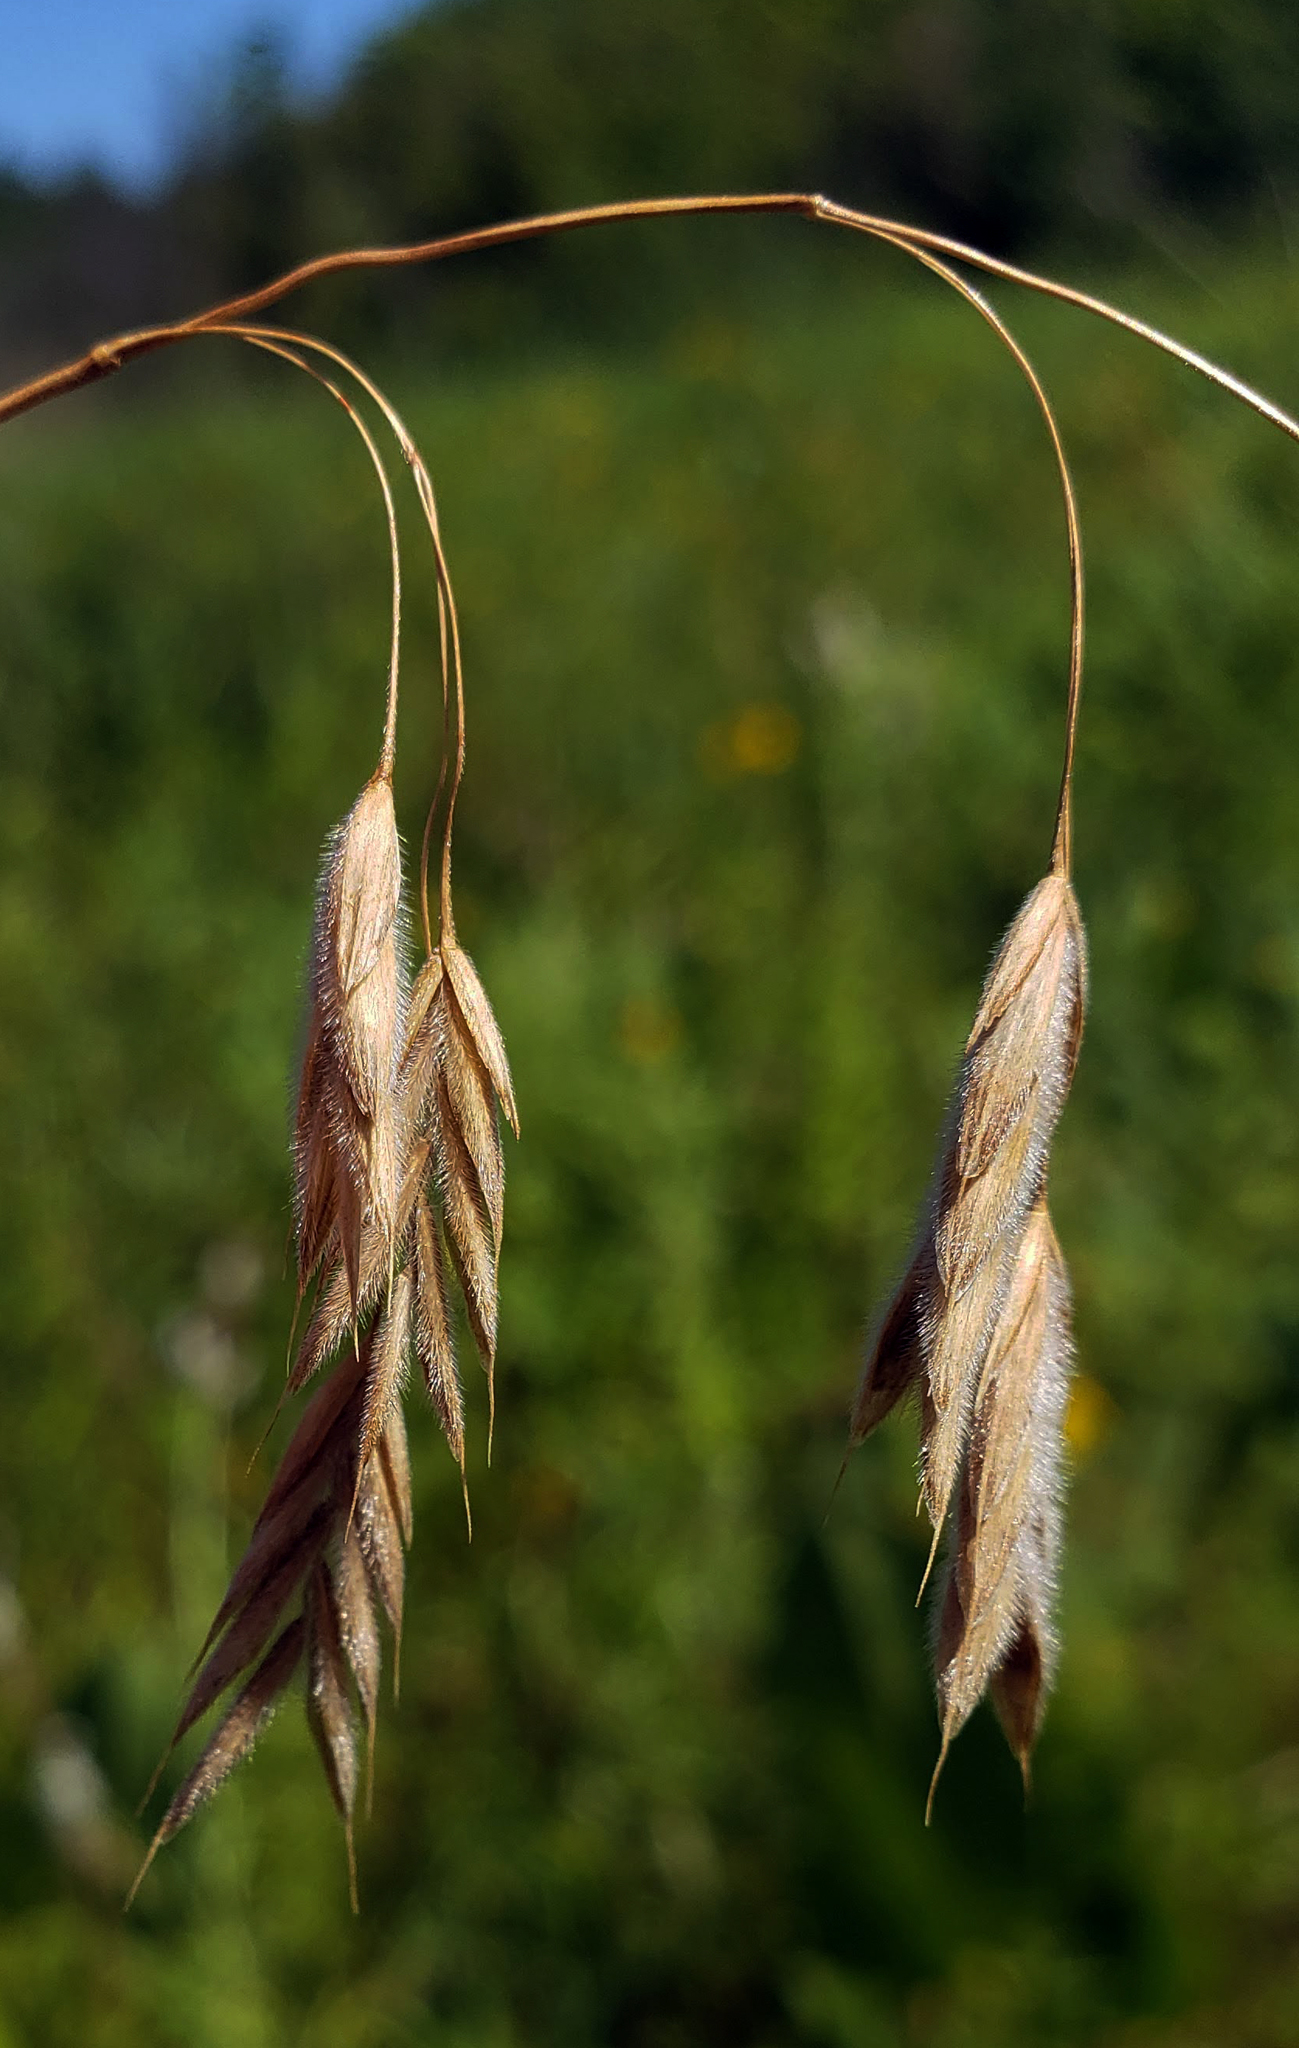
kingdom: Plantae
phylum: Tracheophyta
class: Liliopsida
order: Poales
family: Poaceae
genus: Bromus
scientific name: Bromus kalmii
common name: Kalm brome
